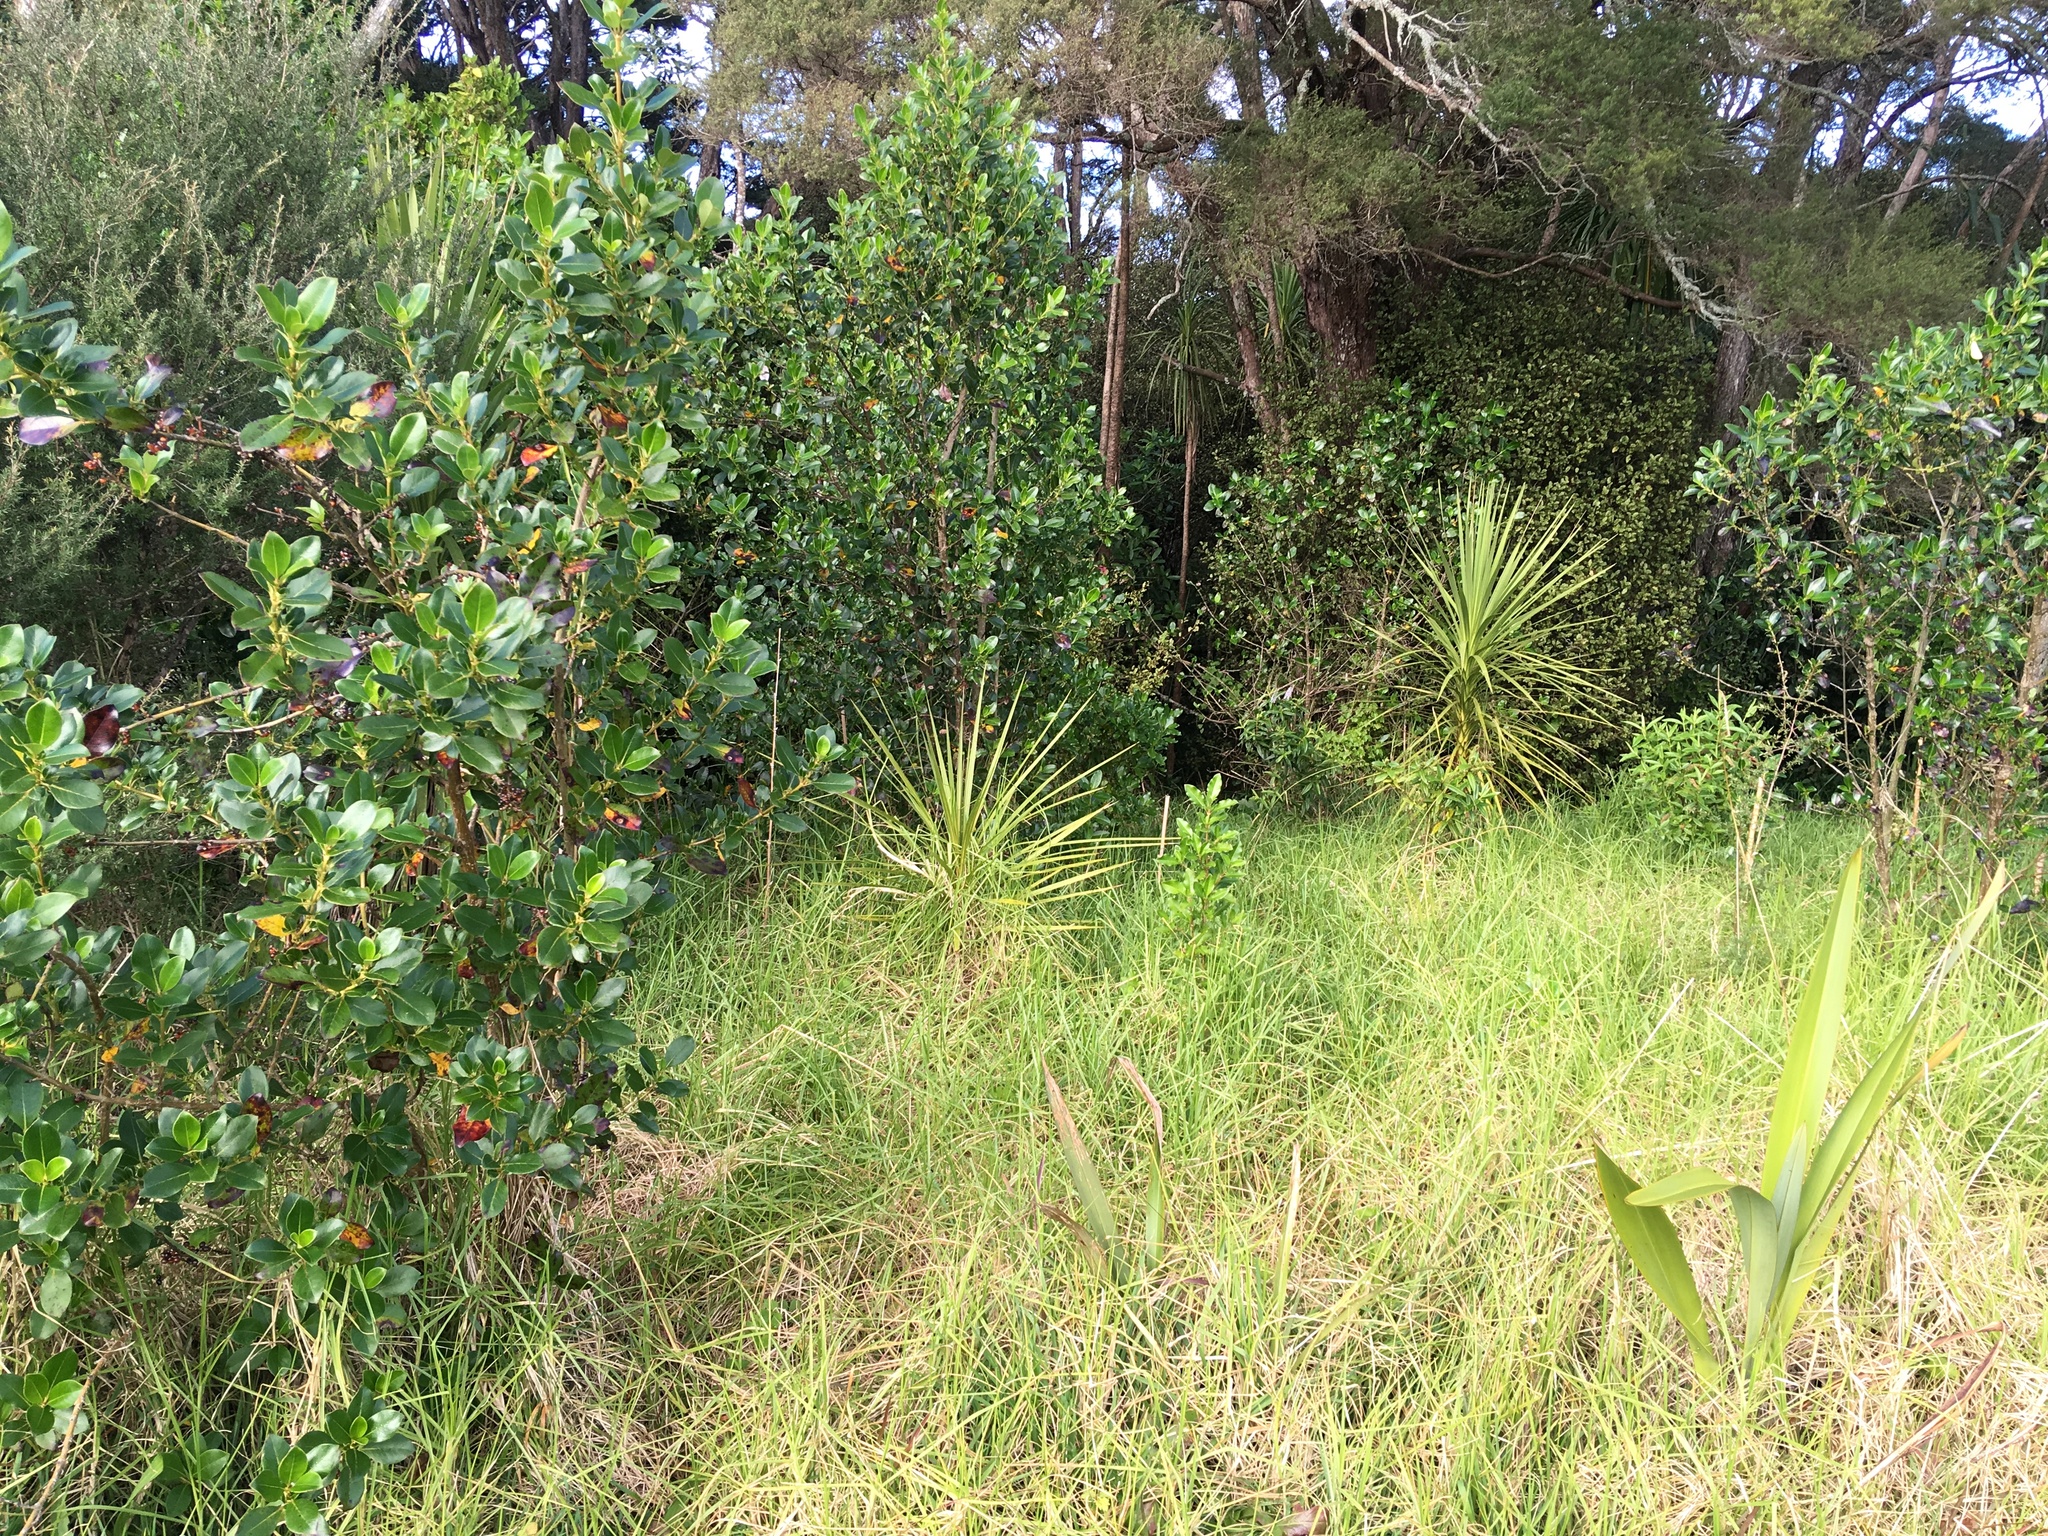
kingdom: Plantae
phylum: Tracheophyta
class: Liliopsida
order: Asparagales
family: Asparagaceae
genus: Cordyline
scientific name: Cordyline australis
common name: Cabbage-palm
